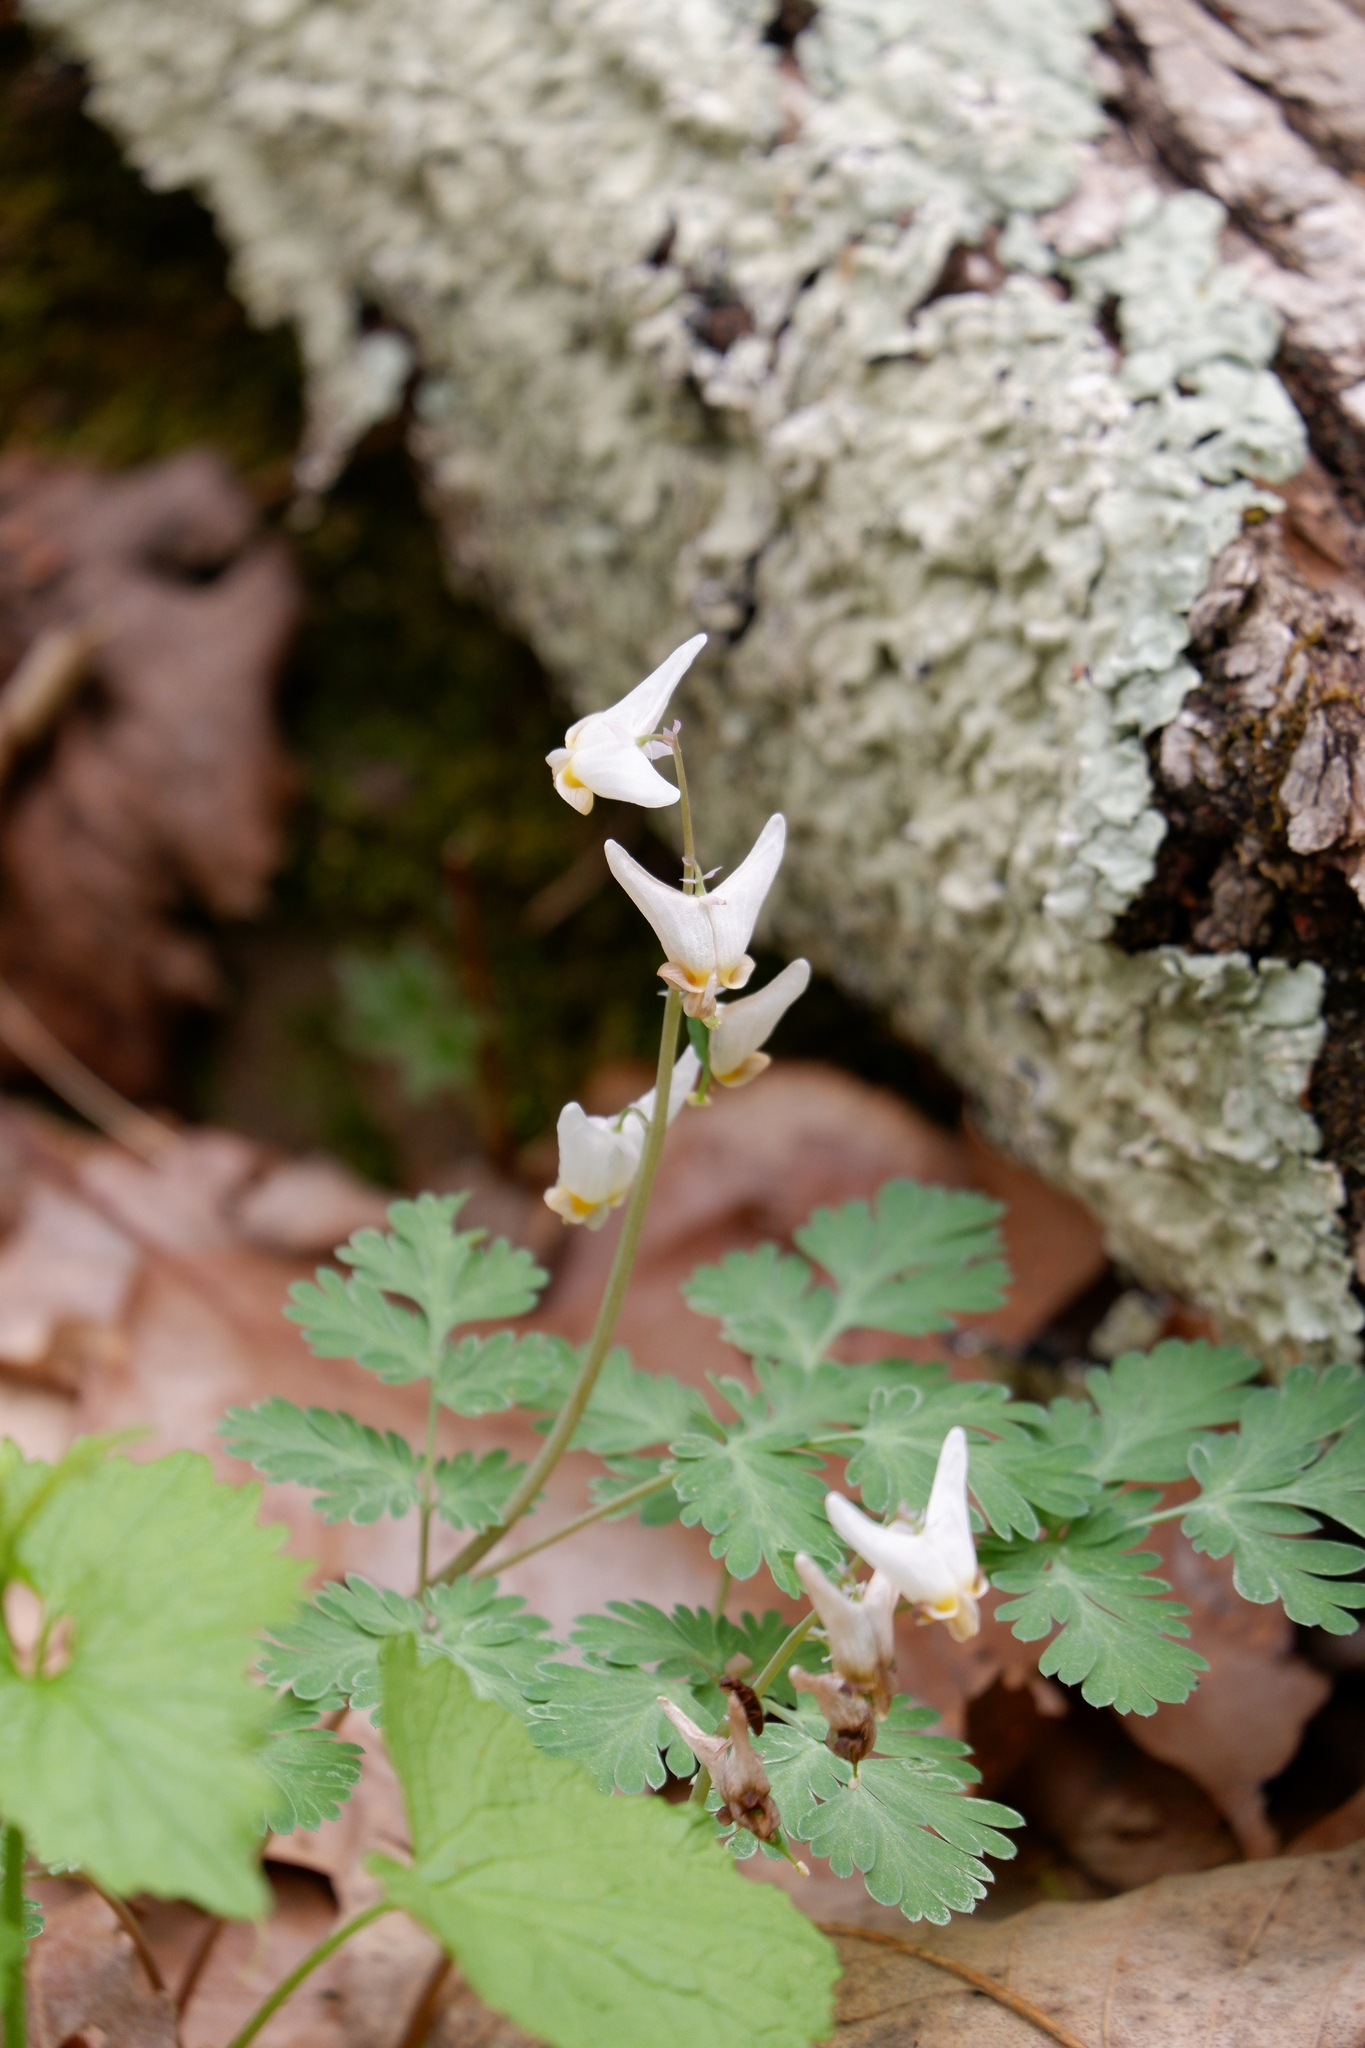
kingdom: Plantae
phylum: Tracheophyta
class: Magnoliopsida
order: Ranunculales
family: Papaveraceae
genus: Dicentra
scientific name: Dicentra cucullaria
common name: Dutchman's breeches
